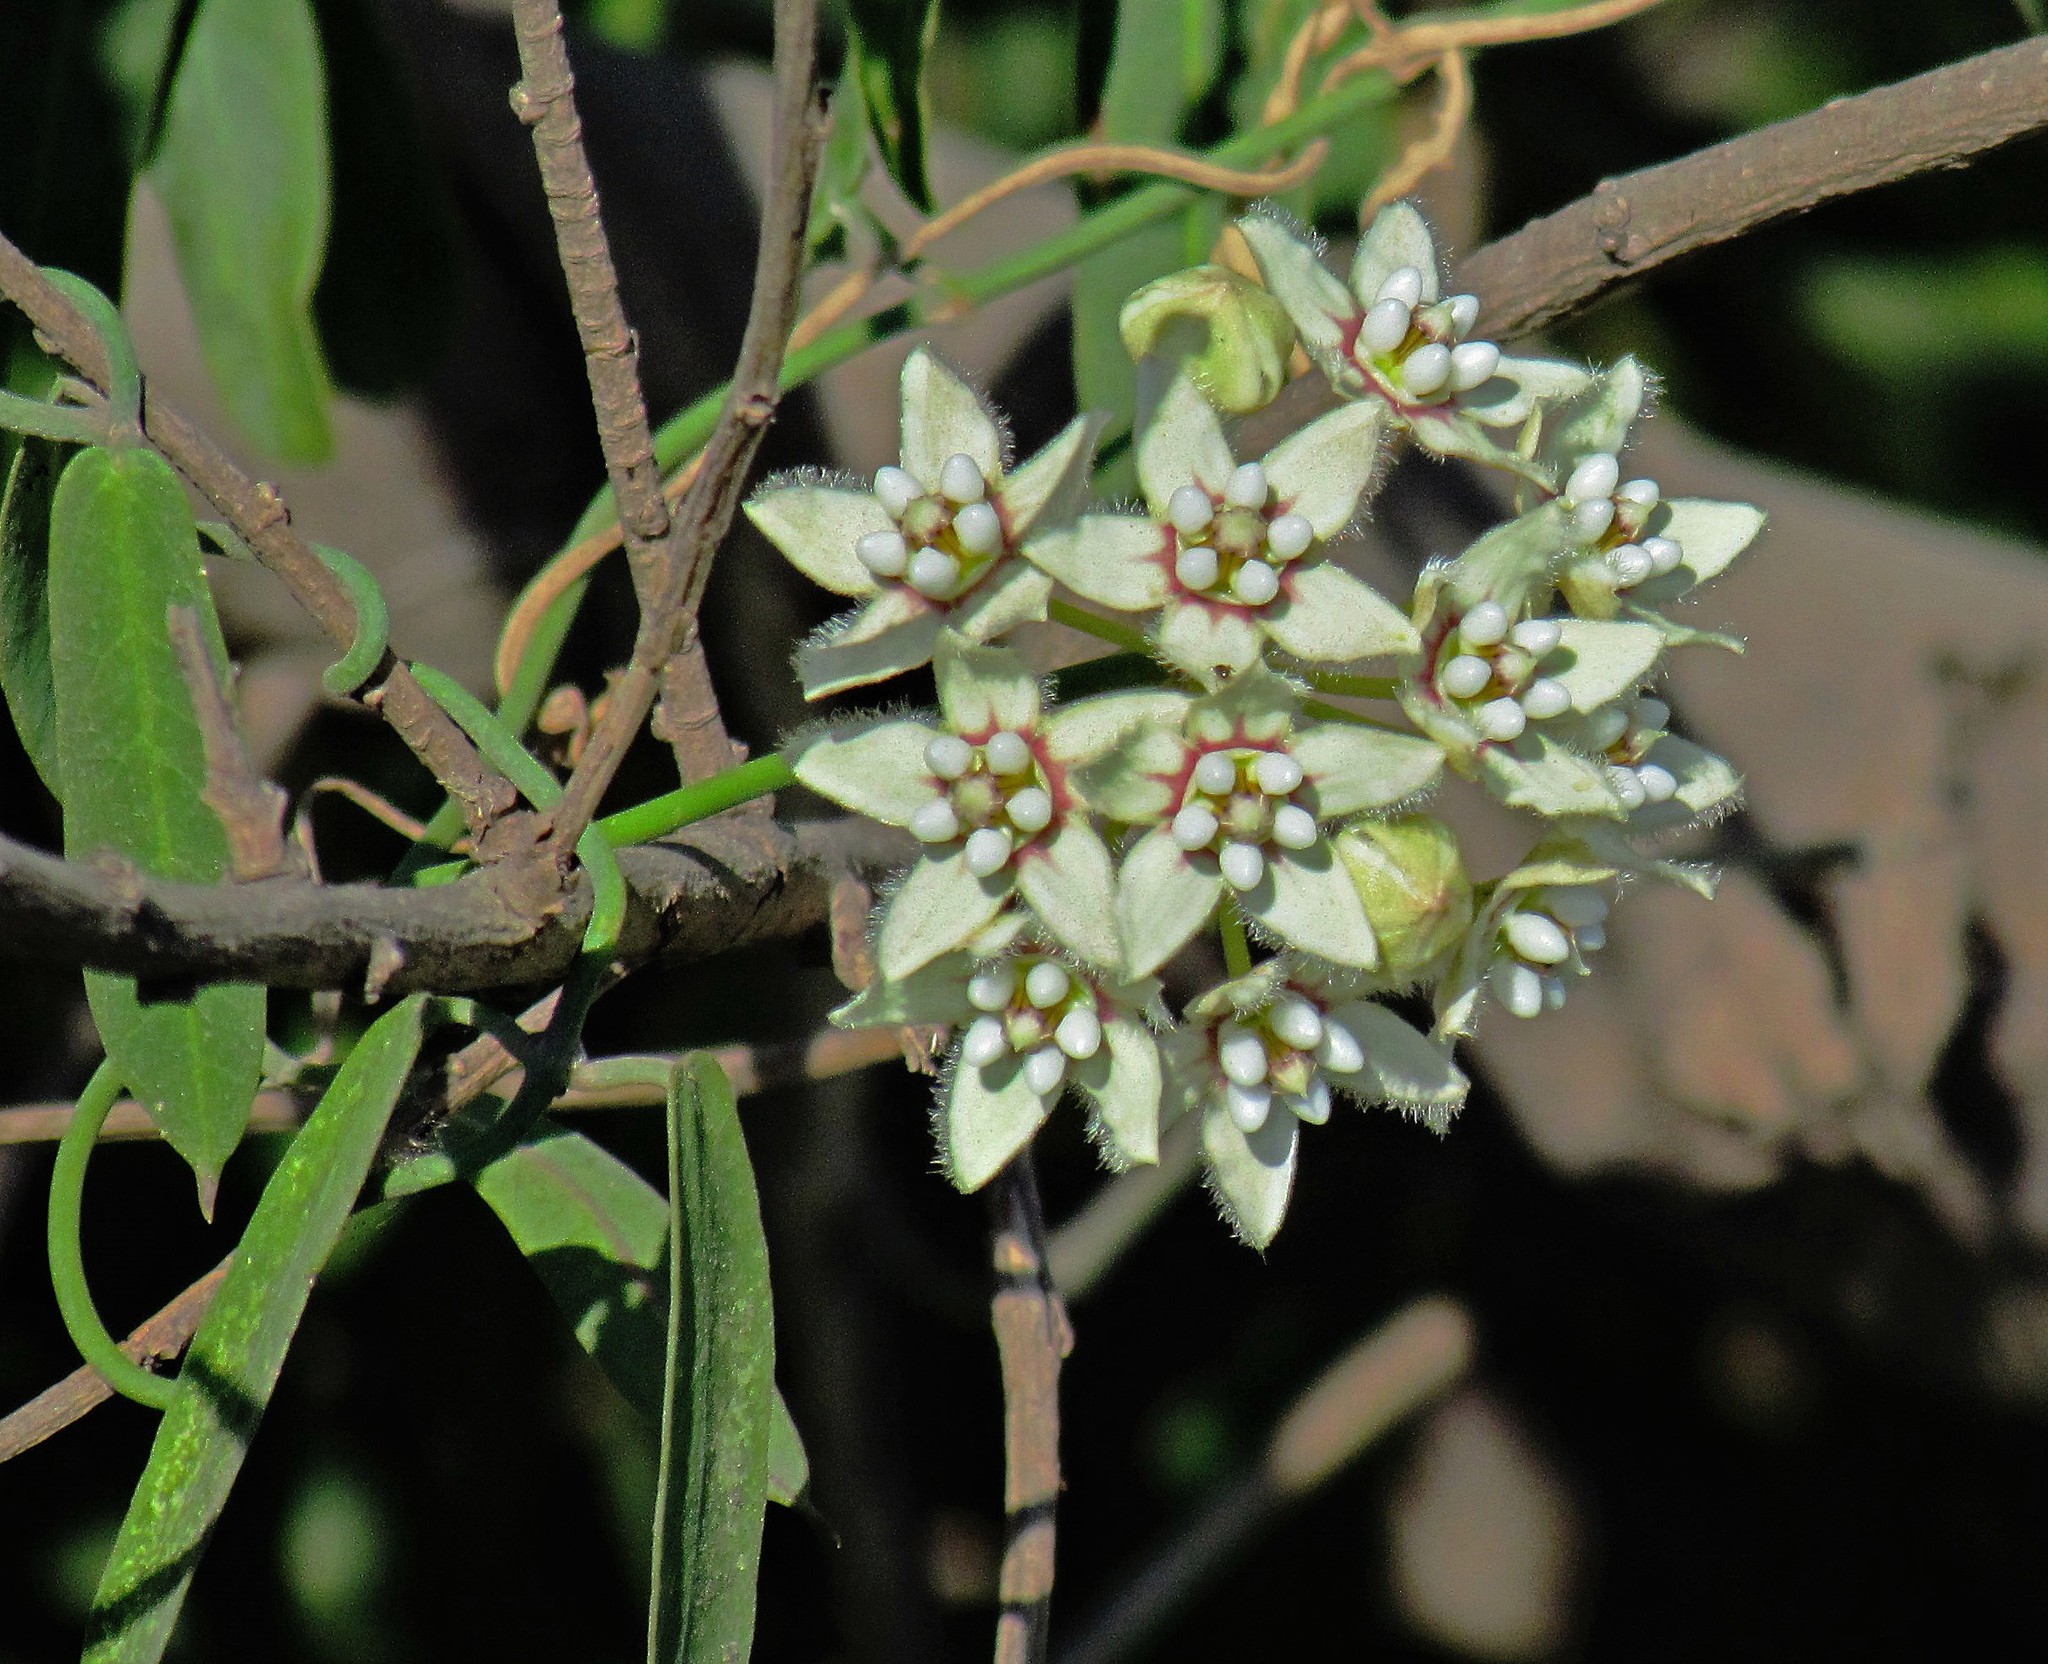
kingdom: Plantae
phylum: Tracheophyta
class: Magnoliopsida
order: Gentianales
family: Apocynaceae
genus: Funastrum
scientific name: Funastrum clausum
